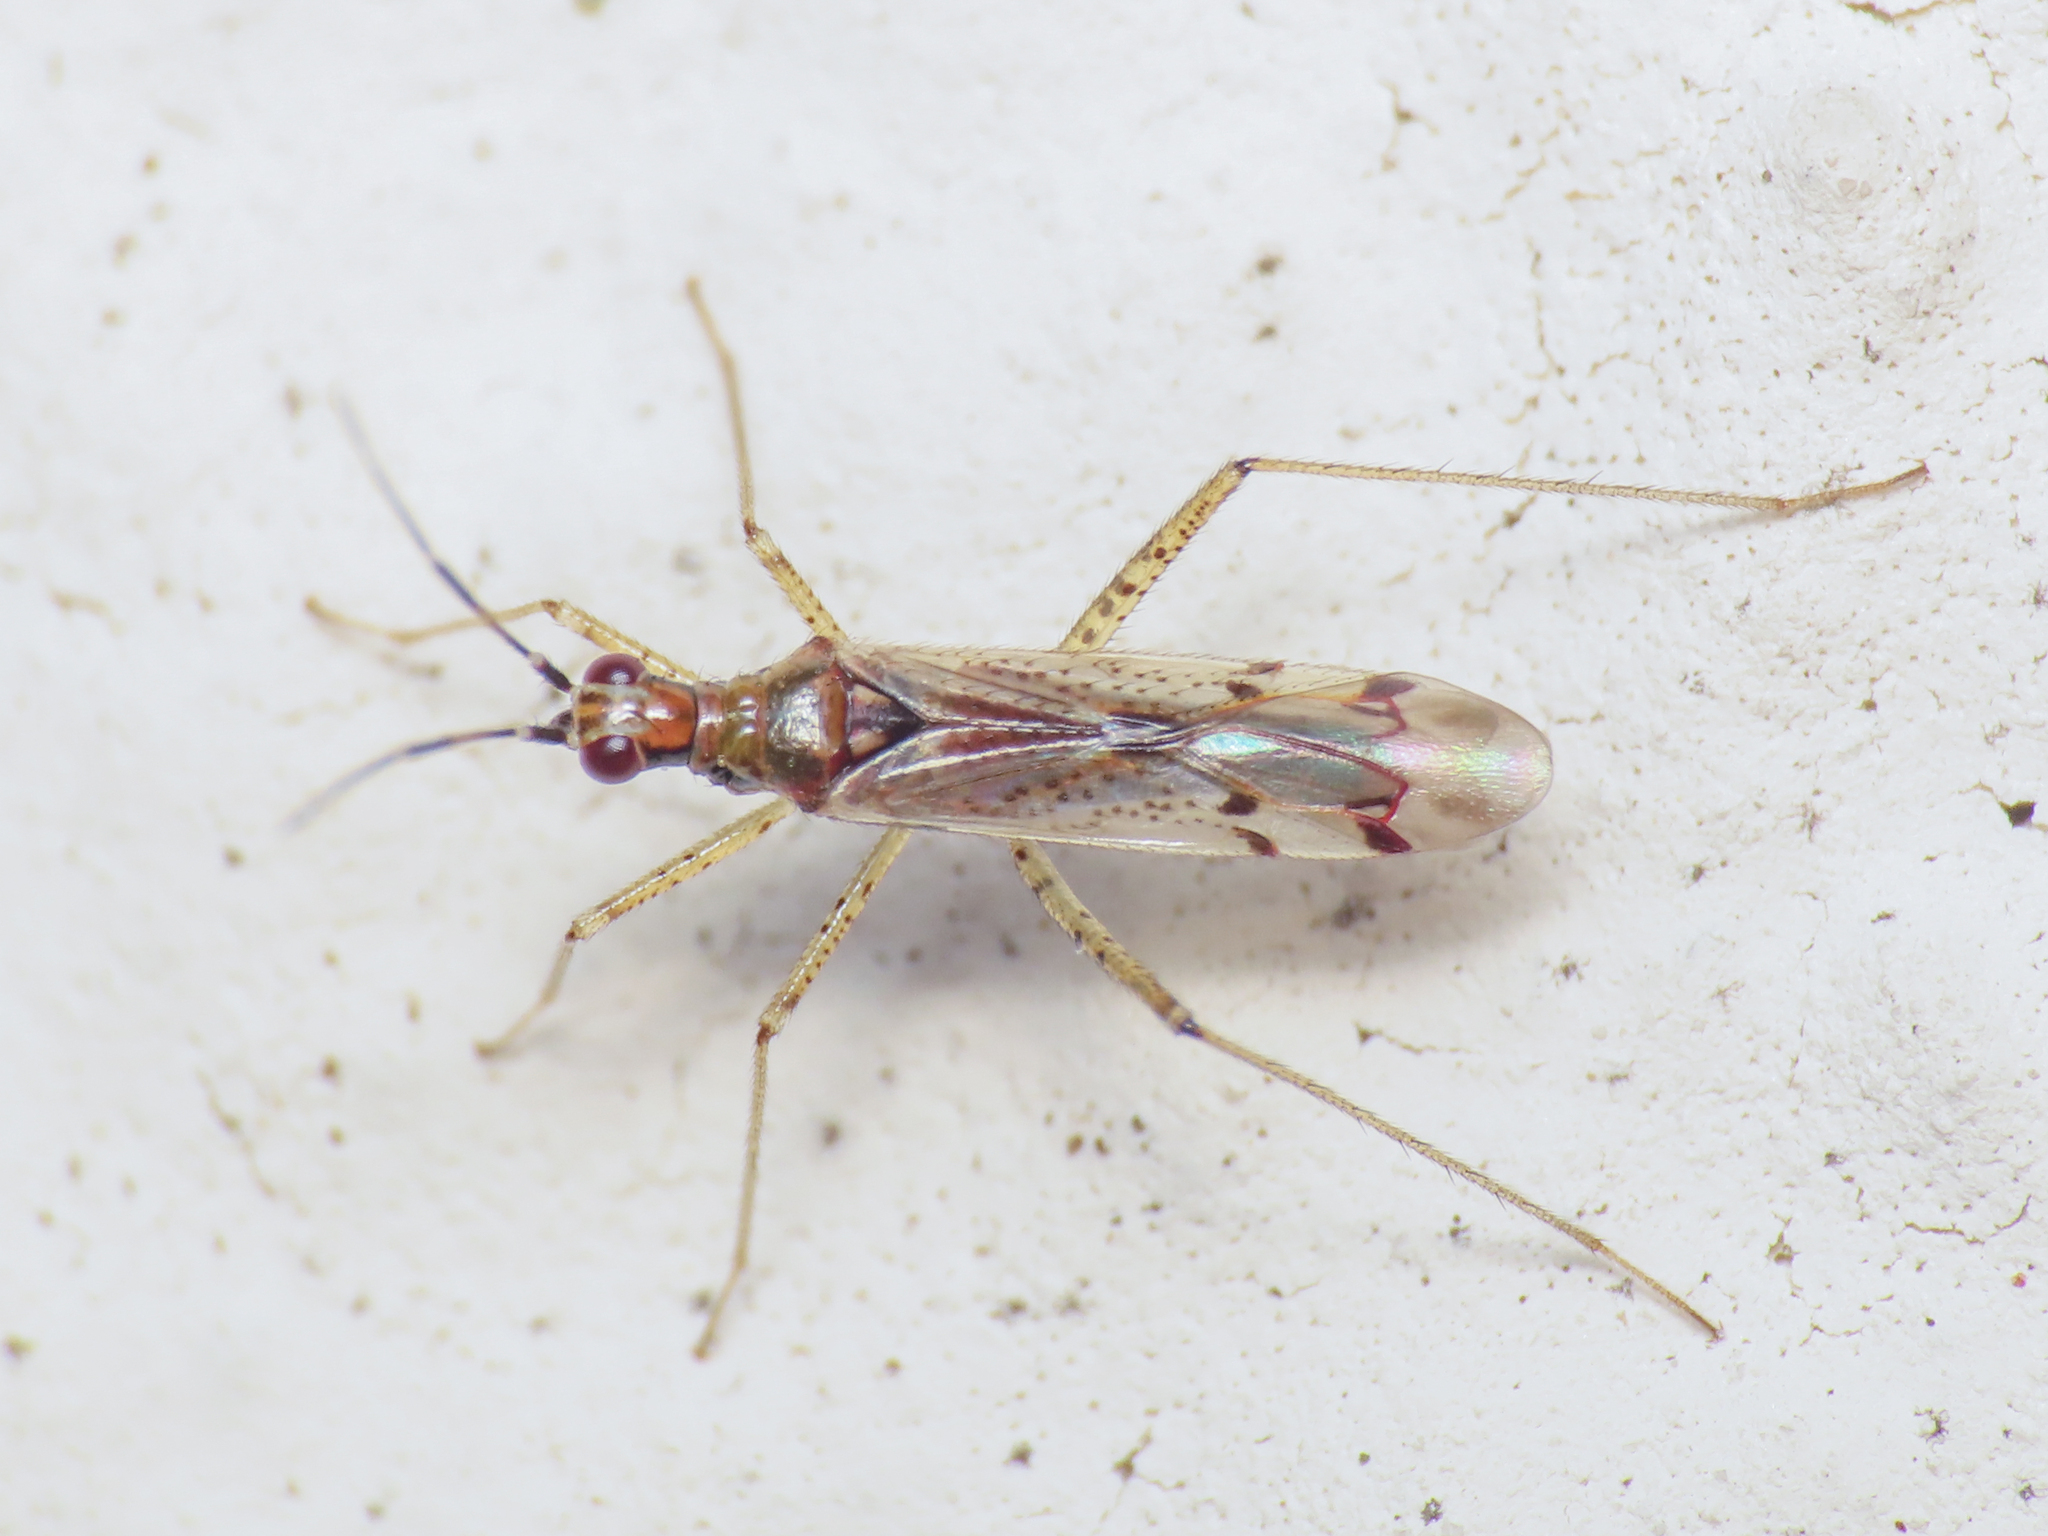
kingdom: Animalia
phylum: Arthropoda
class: Insecta
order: Hemiptera
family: Miridae
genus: Dicyphus
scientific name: Dicyphus escalerae
